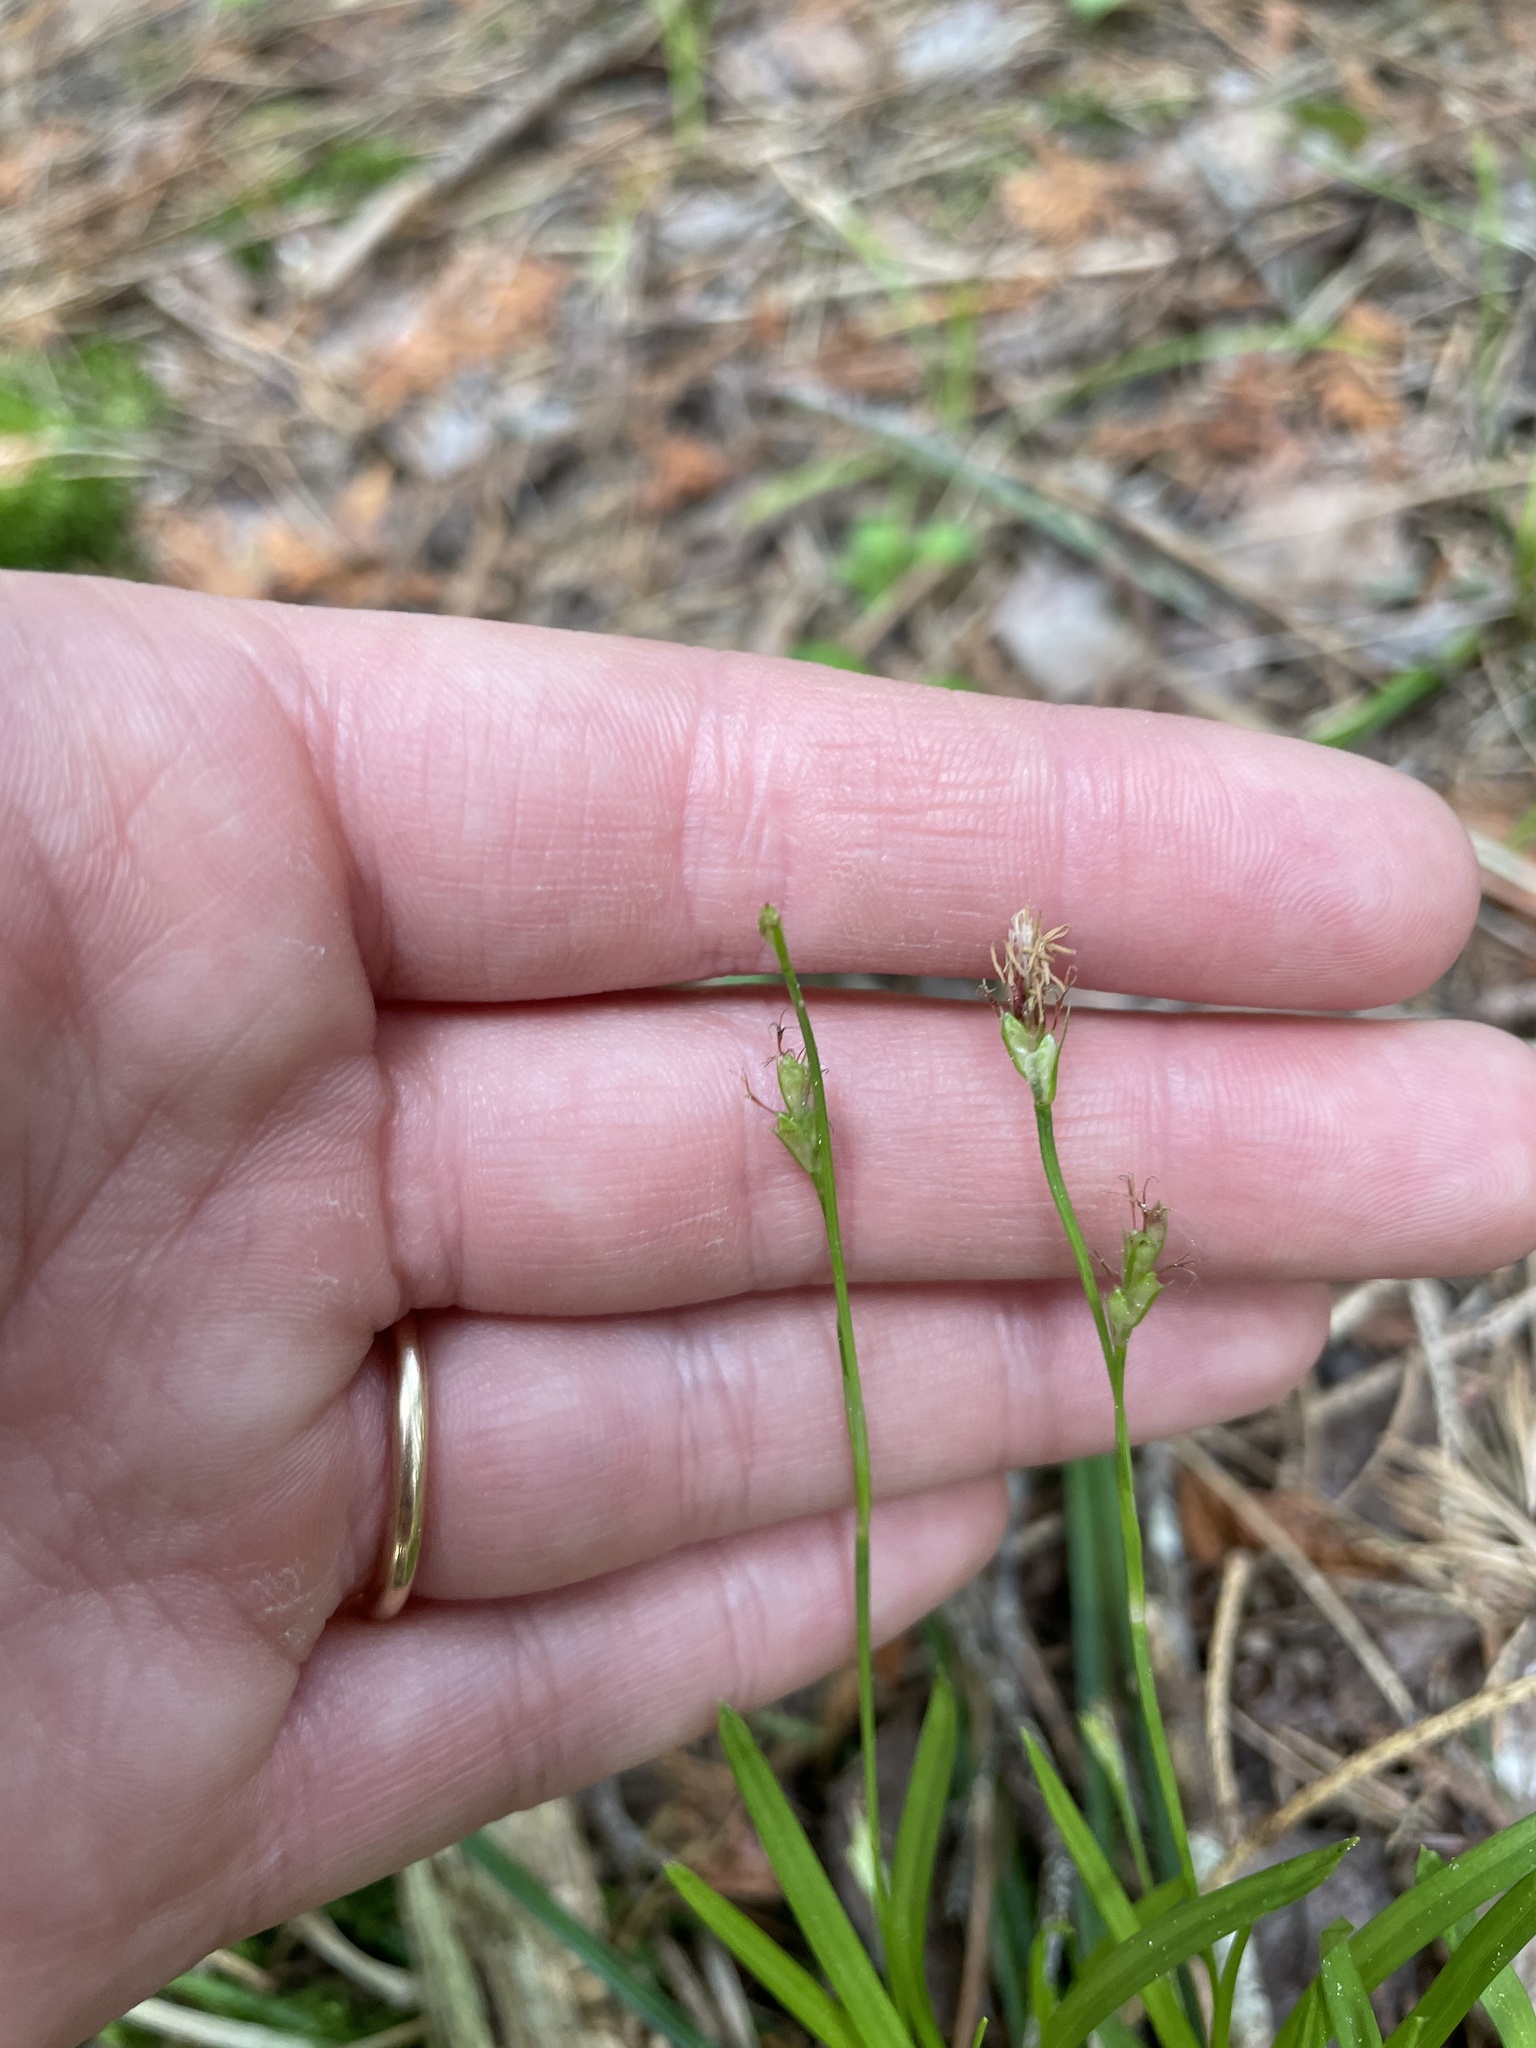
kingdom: Plantae
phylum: Tracheophyta
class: Liliopsida
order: Poales
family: Cyperaceae
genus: Carex
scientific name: Carex pedunculata
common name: Pedunculate sedge
